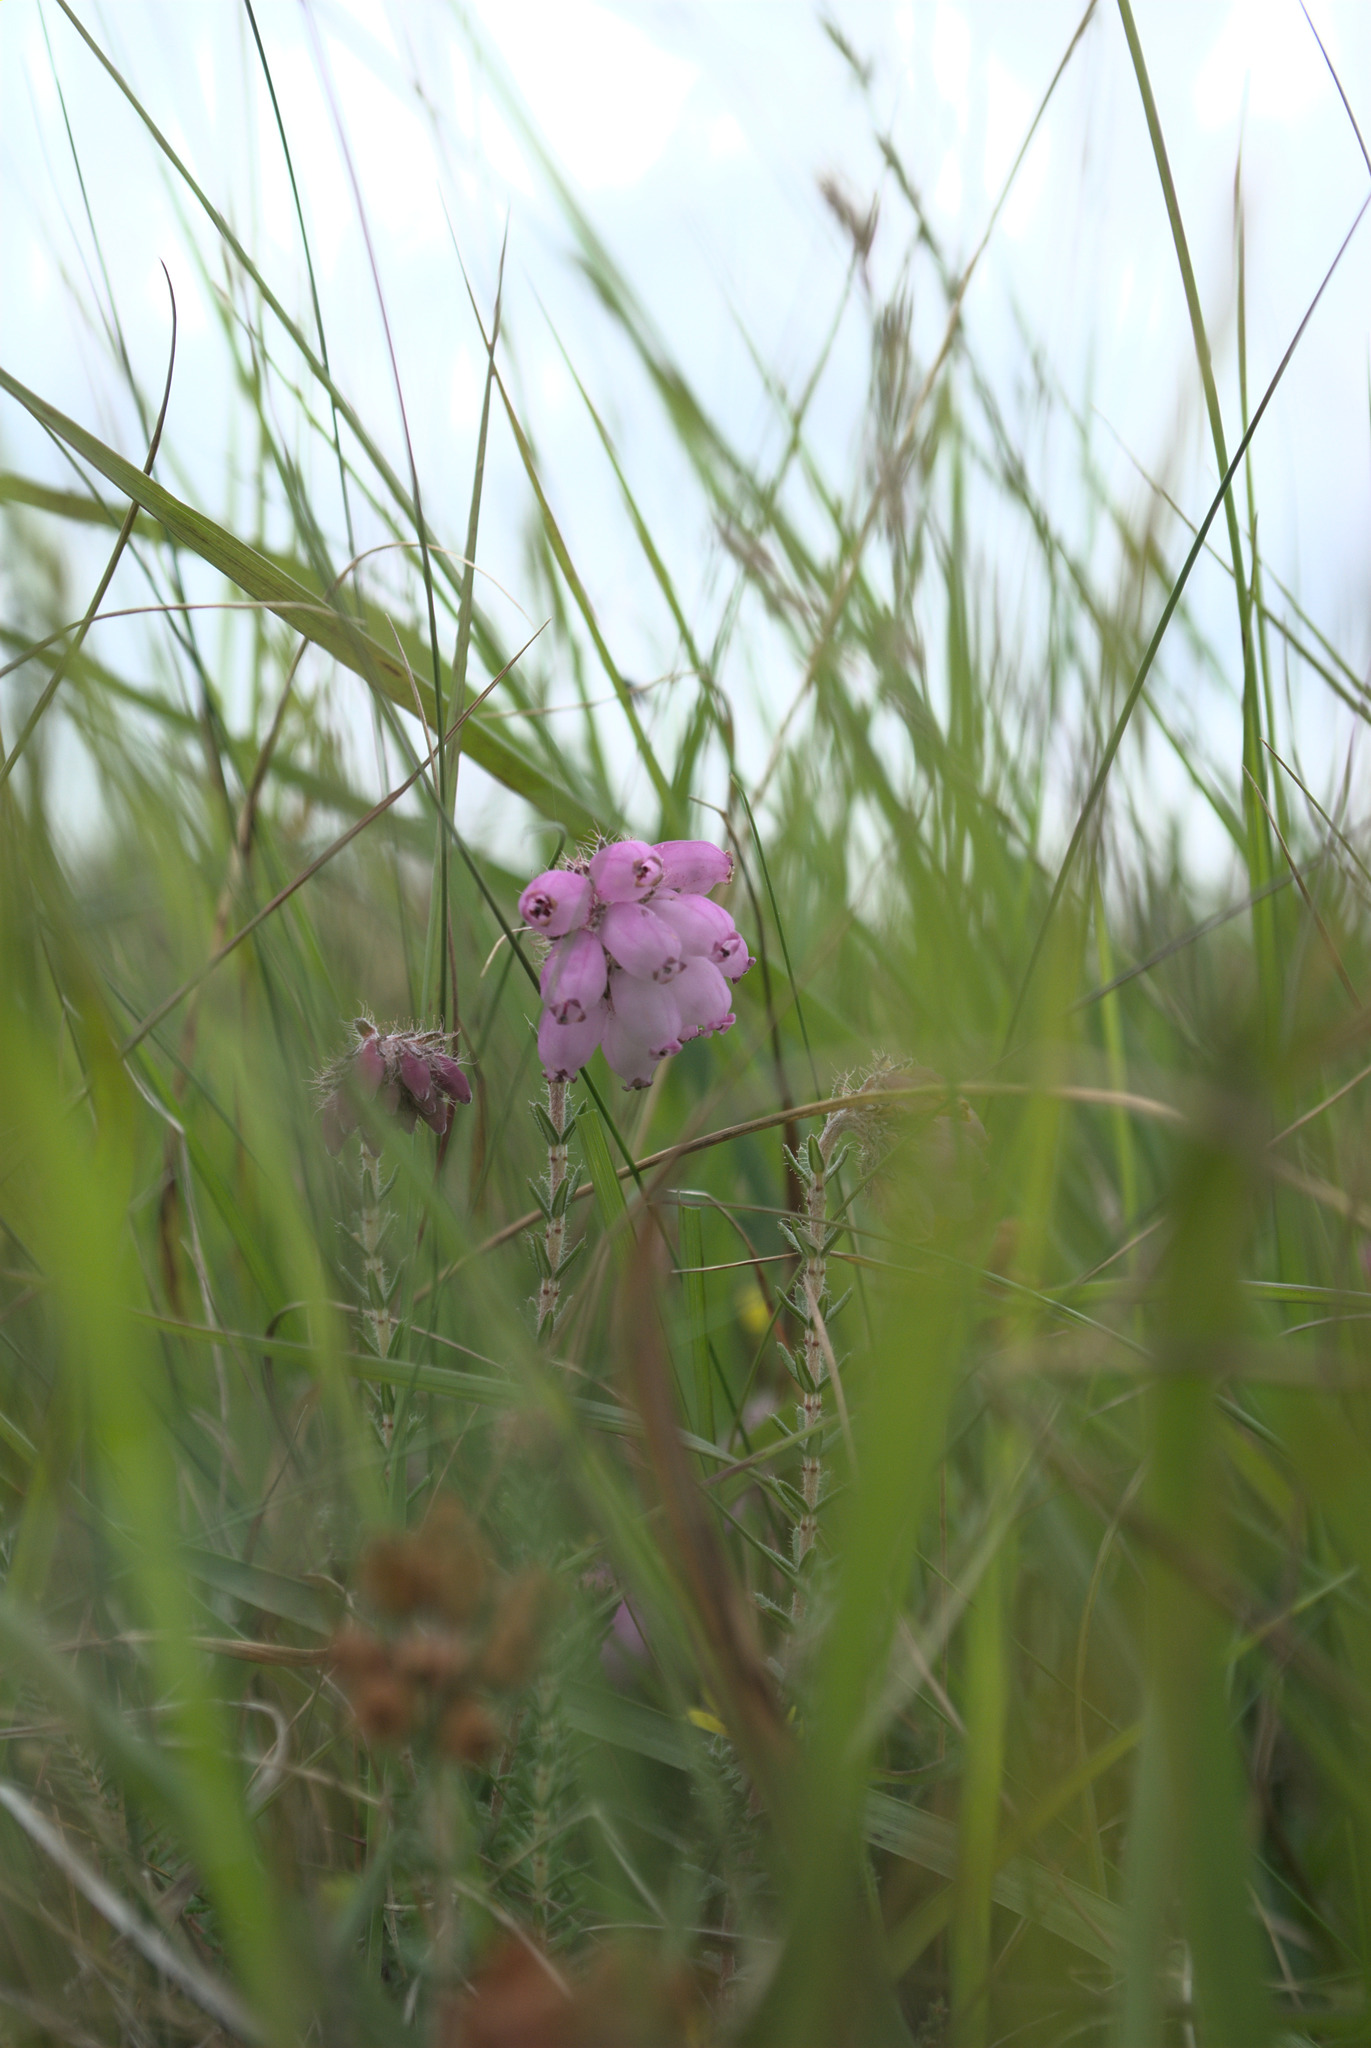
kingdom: Plantae
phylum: Tracheophyta
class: Magnoliopsida
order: Ericales
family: Ericaceae
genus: Erica
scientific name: Erica tetralix
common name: Cross-leaved heath
